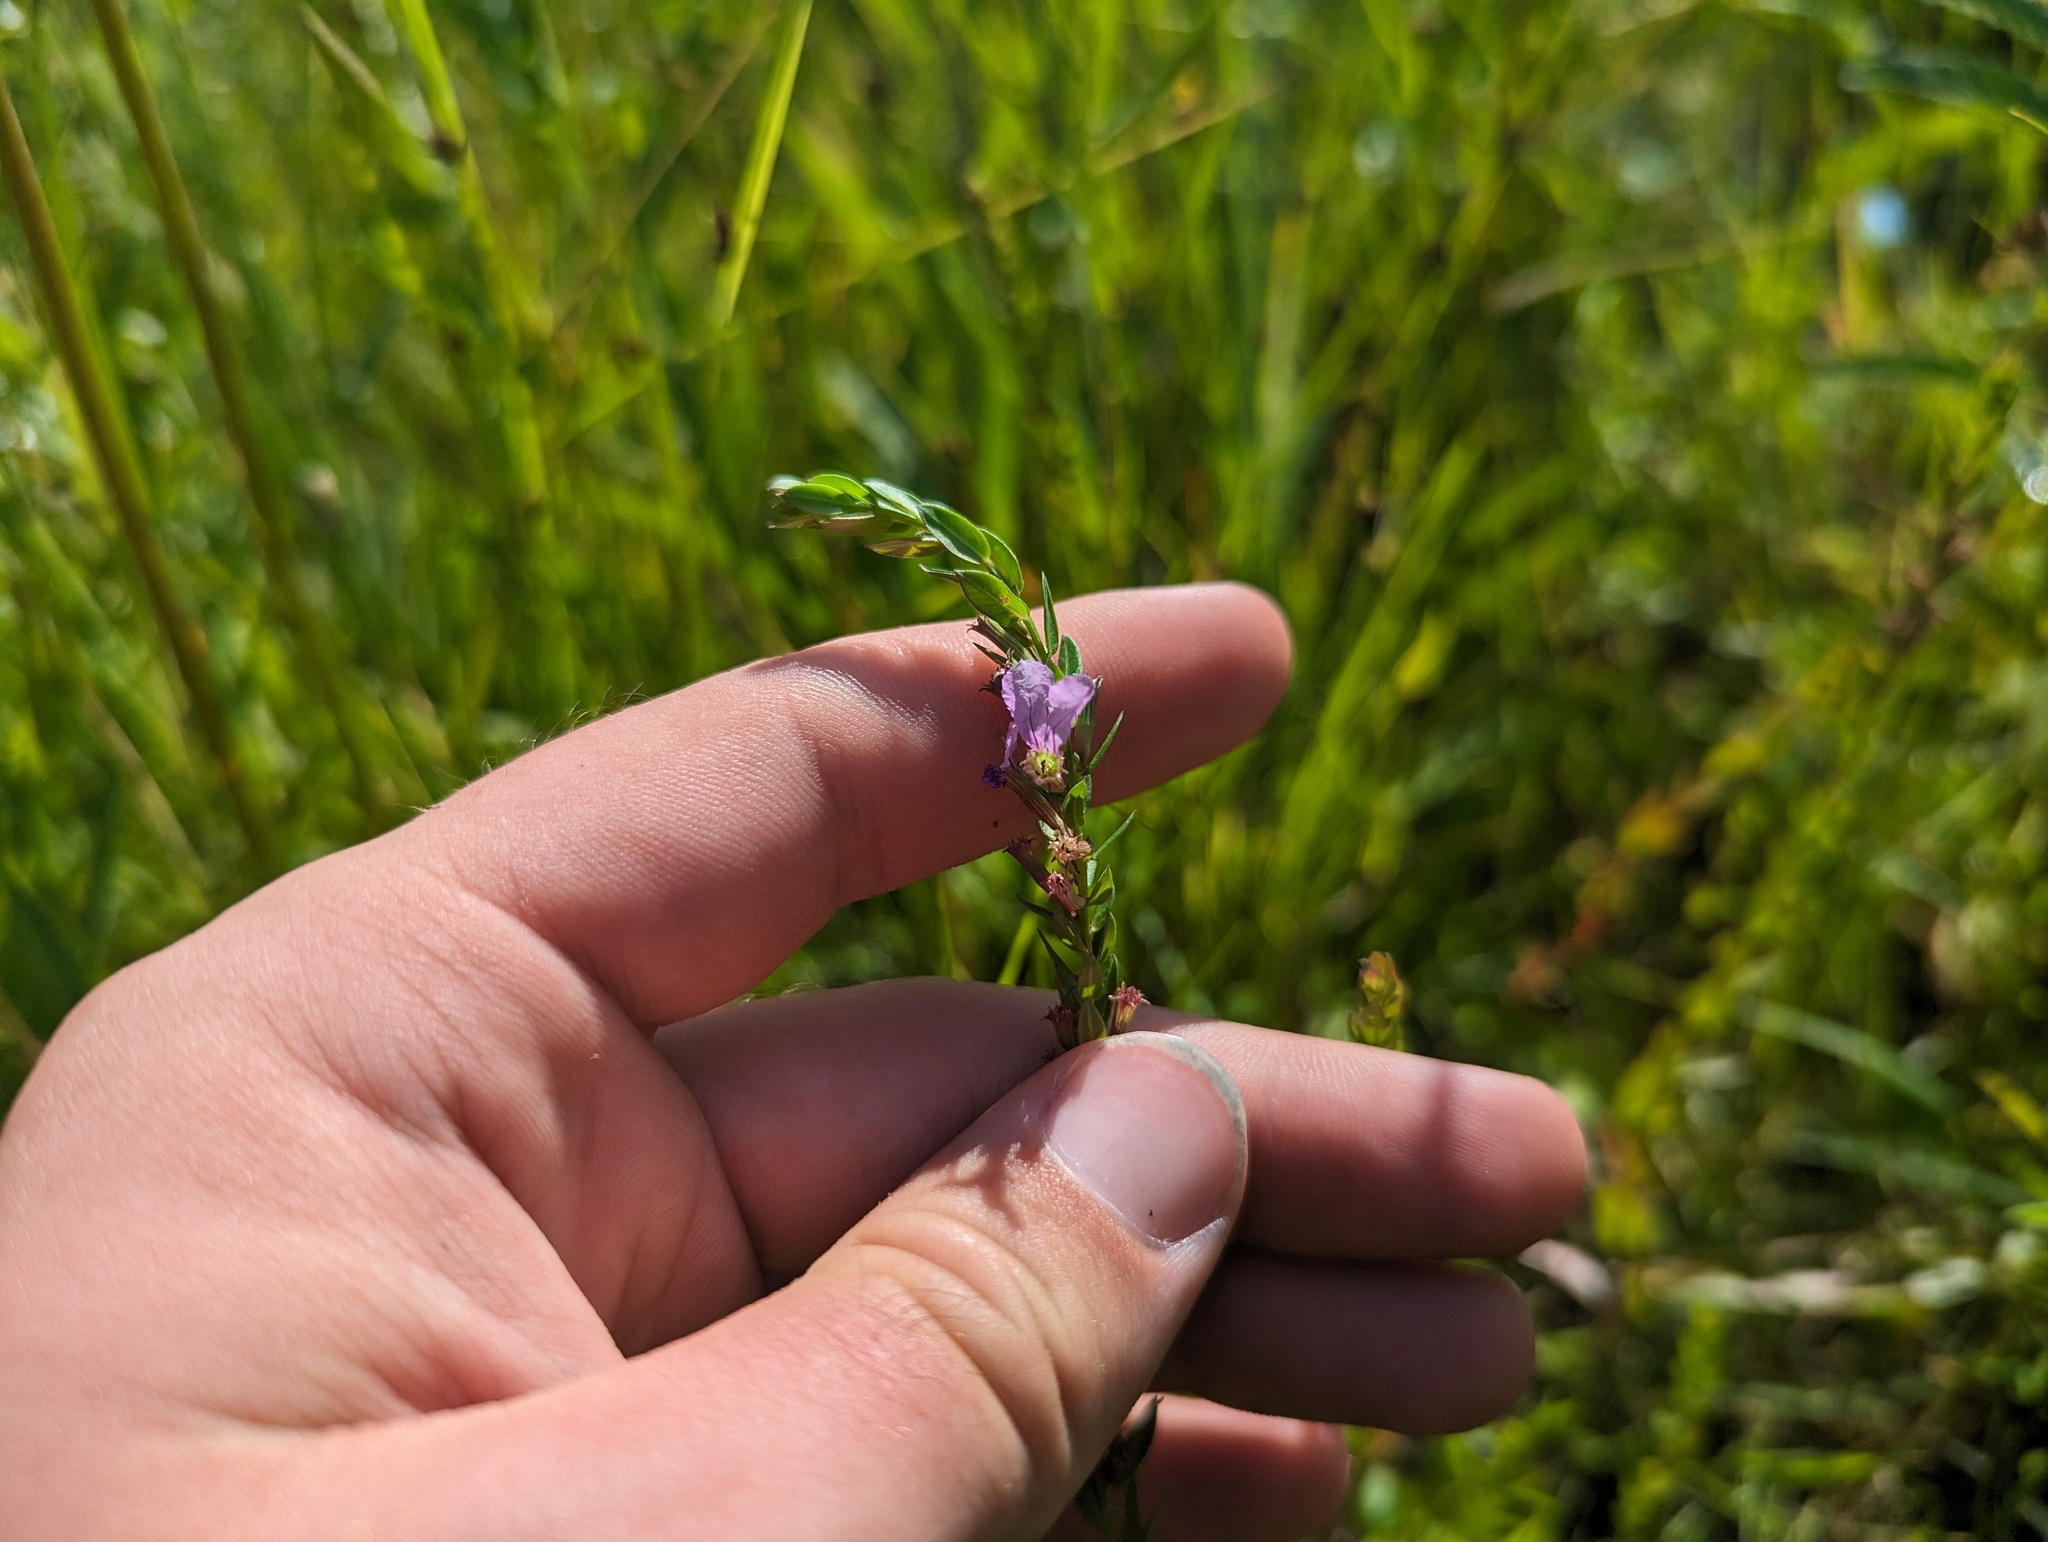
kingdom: Plantae
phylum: Tracheophyta
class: Magnoliopsida
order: Myrtales
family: Lythraceae
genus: Lythrum
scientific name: Lythrum alatum
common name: Winged loosestrife
